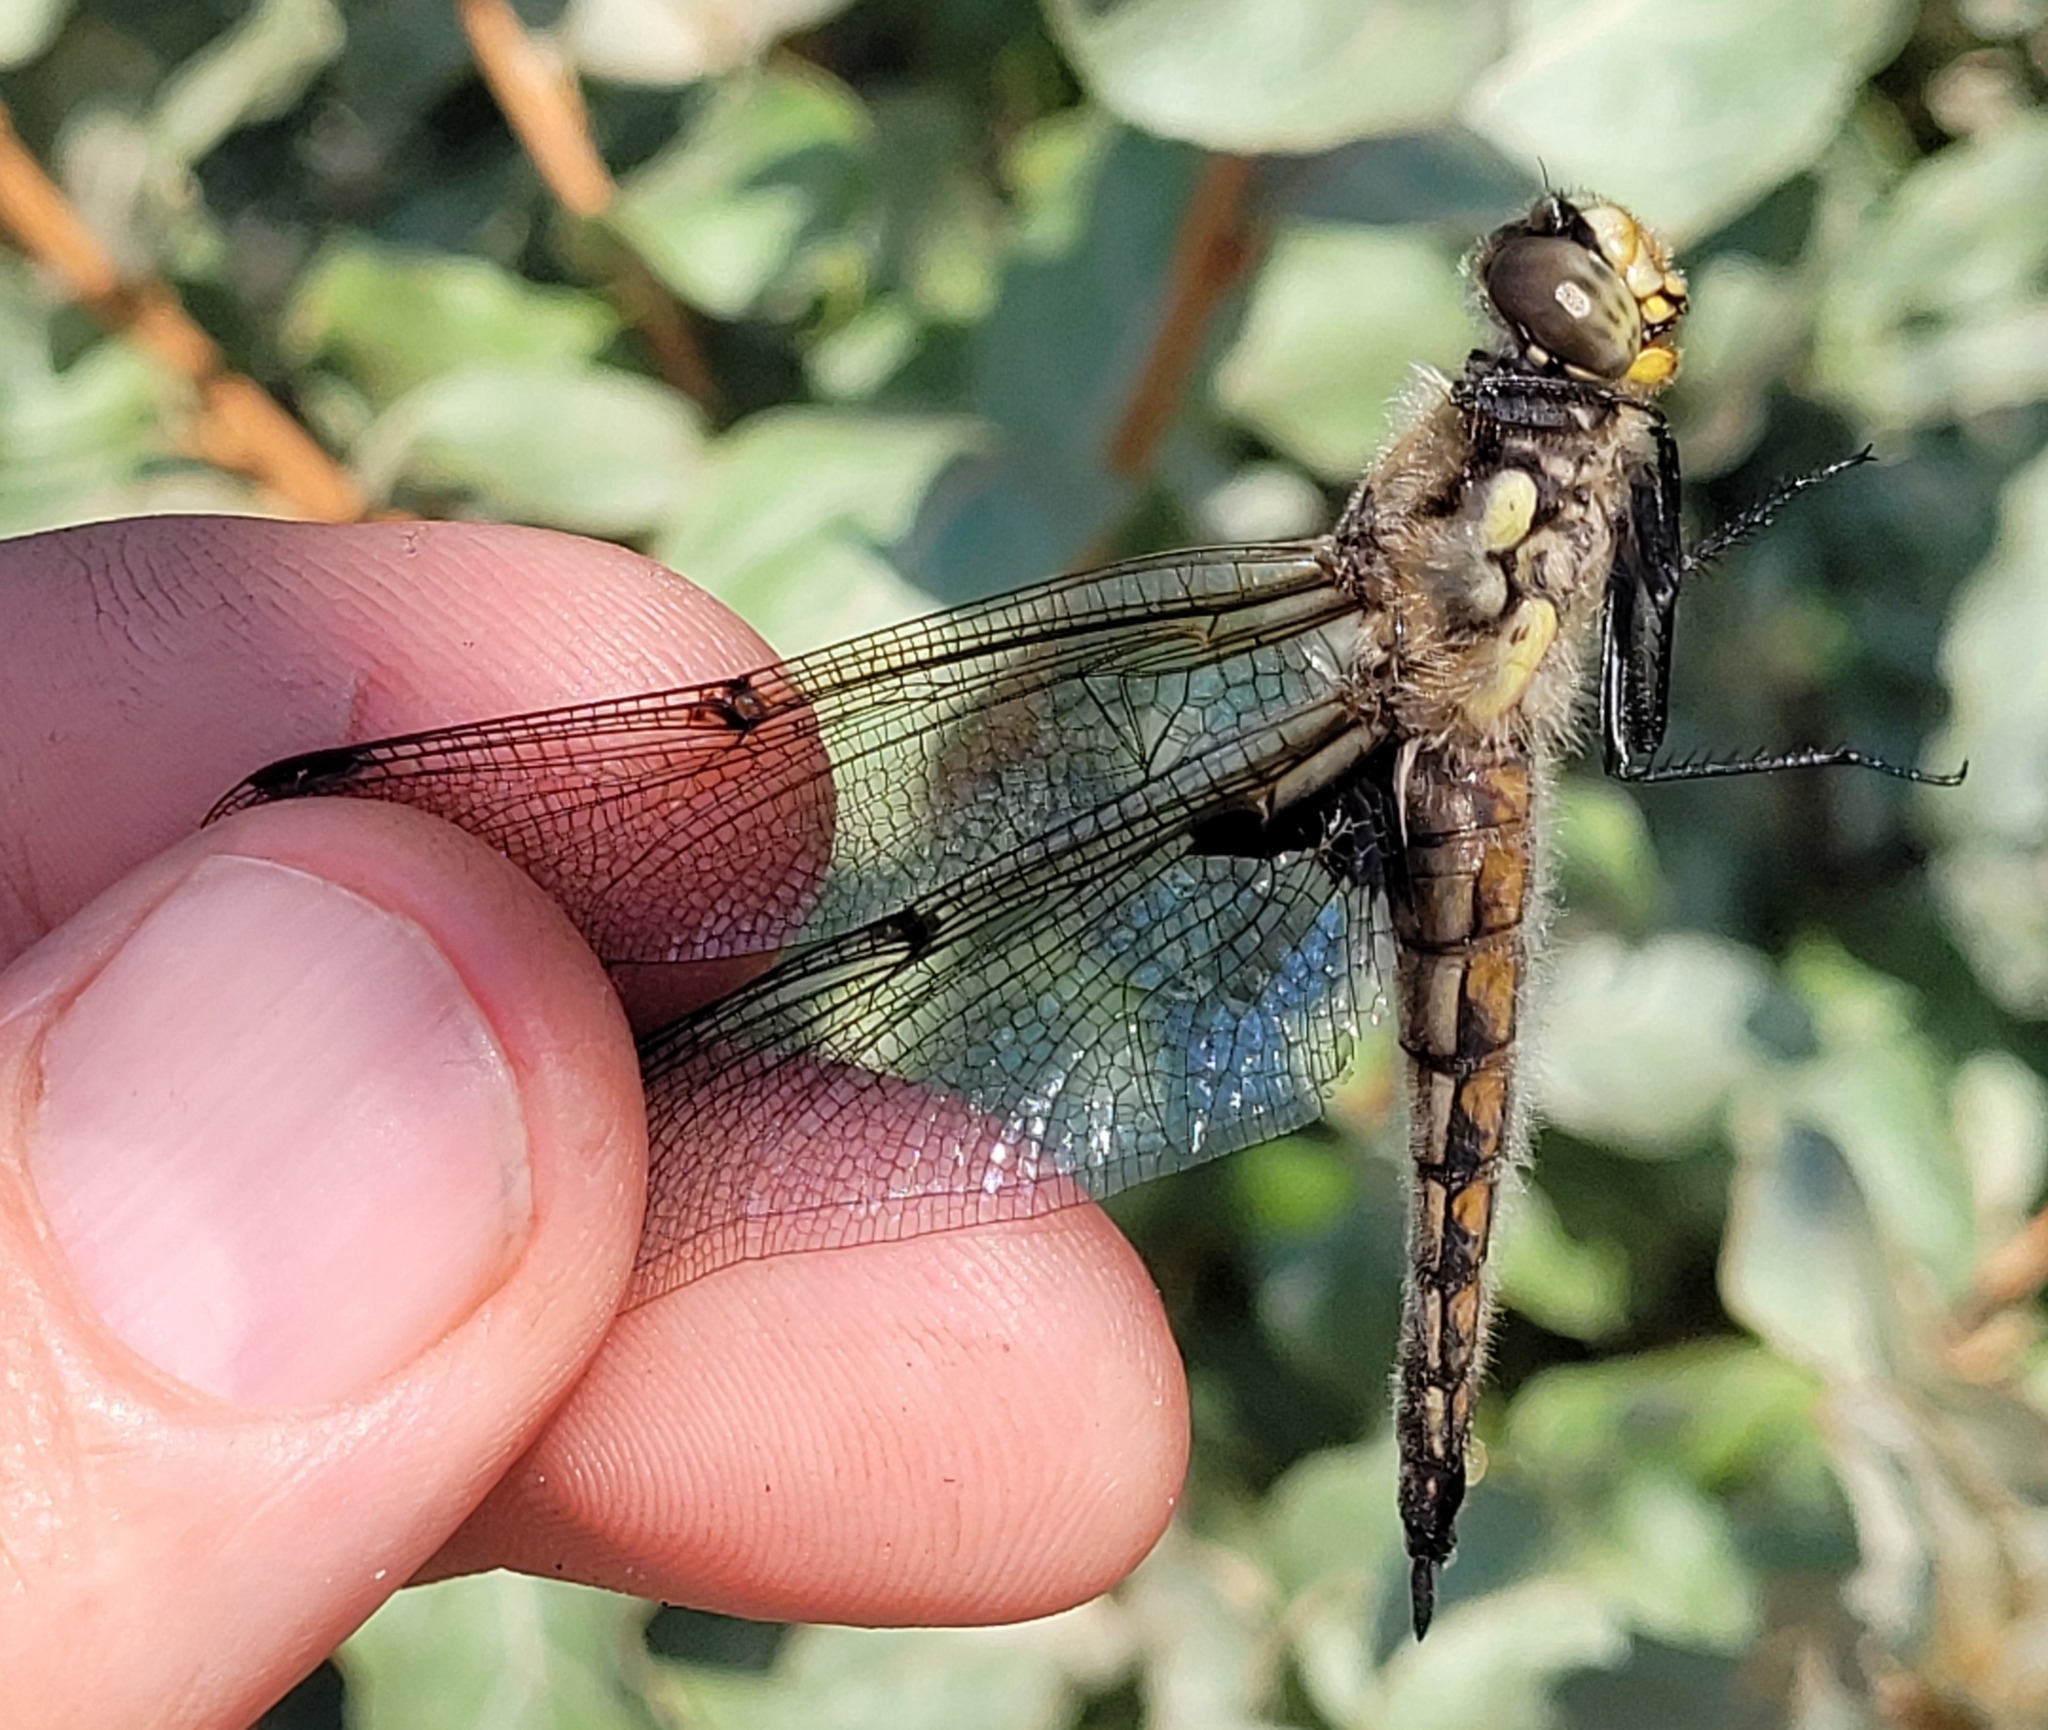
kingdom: Animalia
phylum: Arthropoda
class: Insecta
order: Odonata
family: Libellulidae
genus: Libellula
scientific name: Libellula quadrimaculata
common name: Four-spotted chaser
